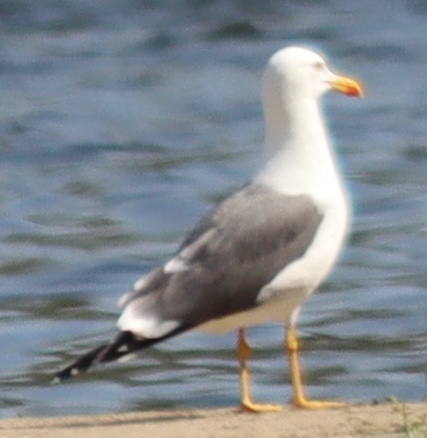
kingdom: Animalia
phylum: Chordata
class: Aves
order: Charadriiformes
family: Laridae
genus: Larus
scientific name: Larus fuscus
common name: Lesser black-backed gull
